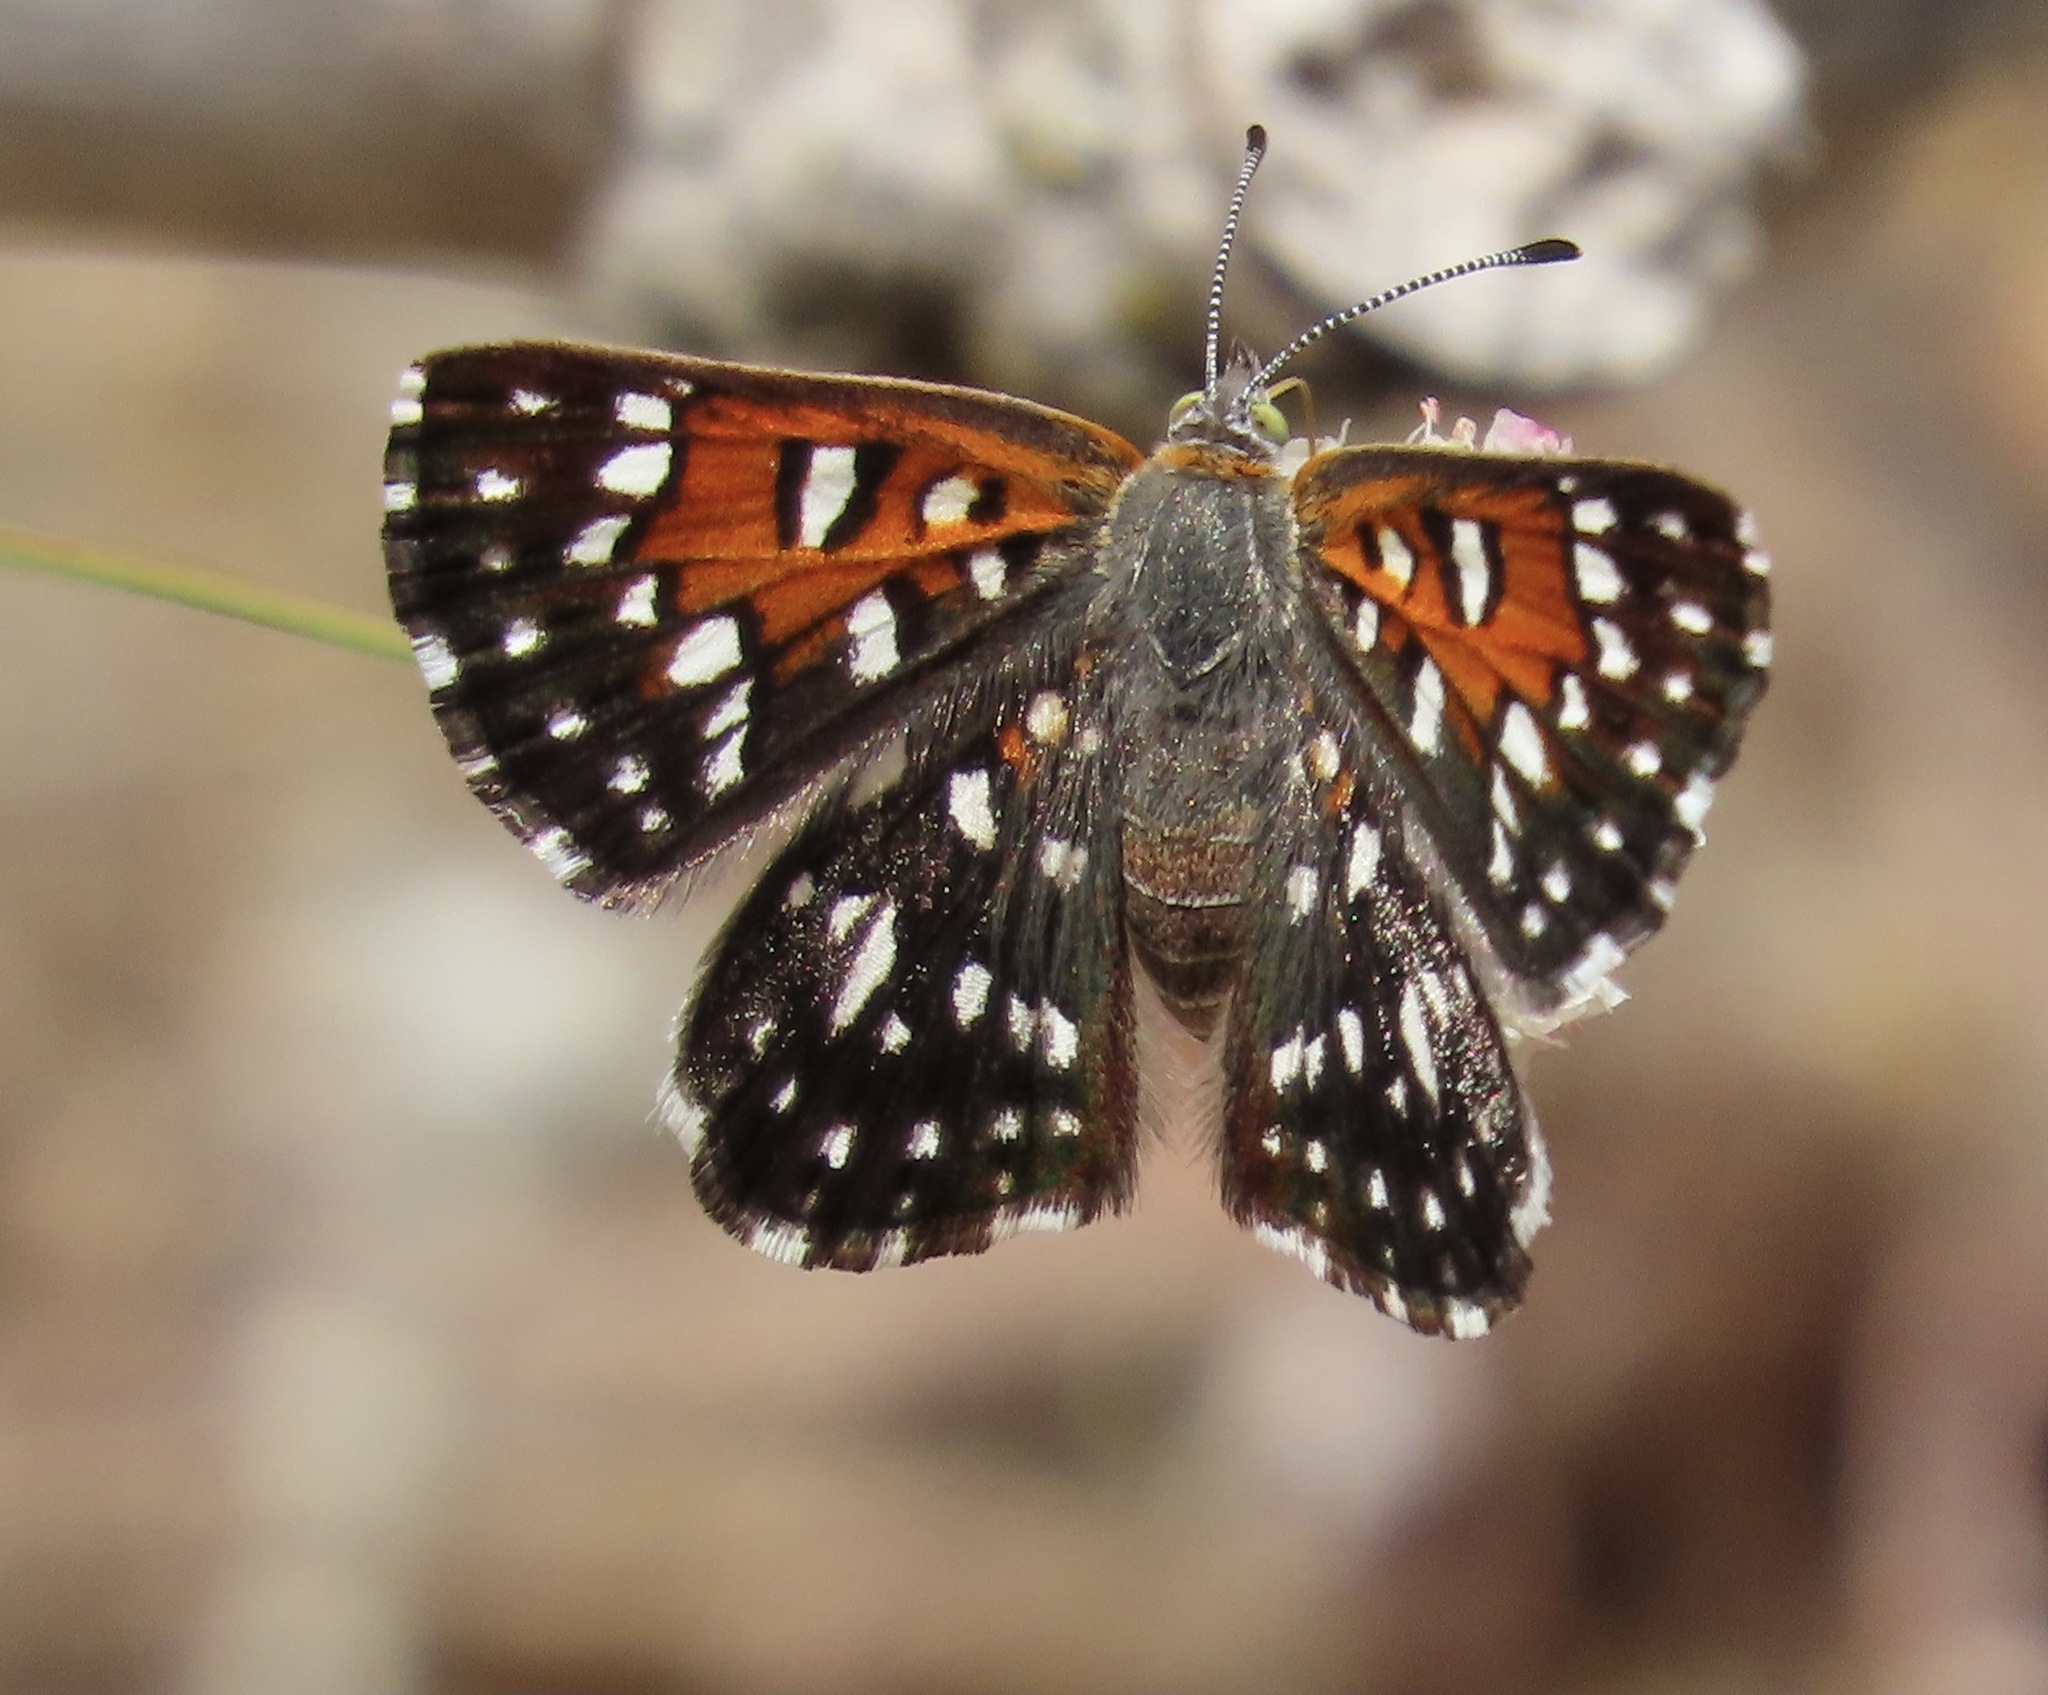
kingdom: Animalia
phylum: Arthropoda
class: Insecta
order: Lepidoptera
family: Riodinidae
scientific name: Riodinidae
